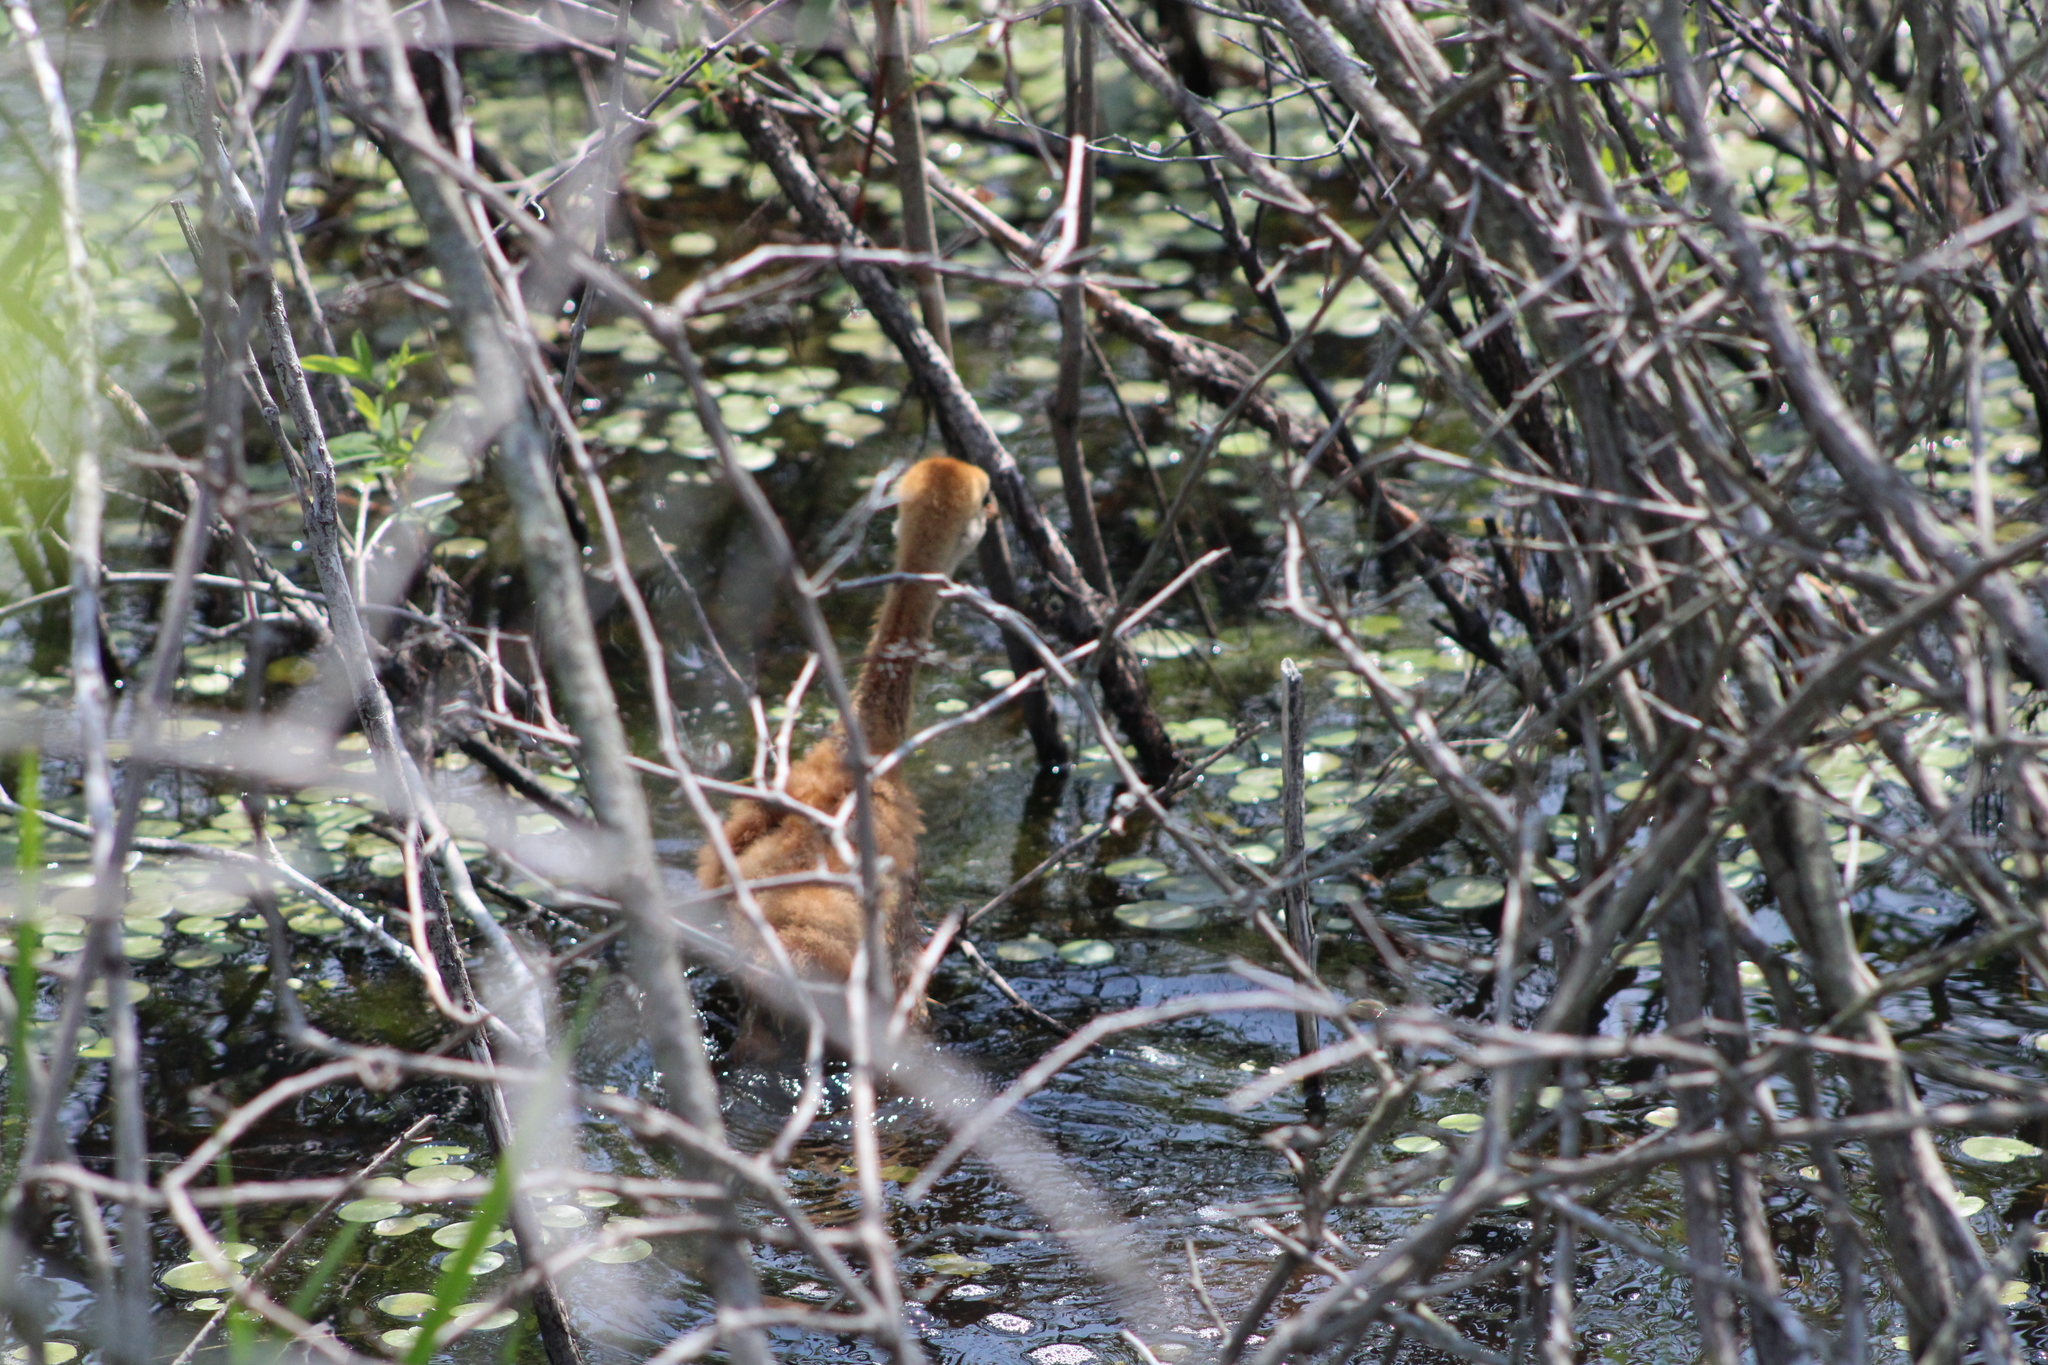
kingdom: Animalia
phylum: Chordata
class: Aves
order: Gruiformes
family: Gruidae
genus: Grus
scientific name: Grus canadensis
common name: Sandhill crane
